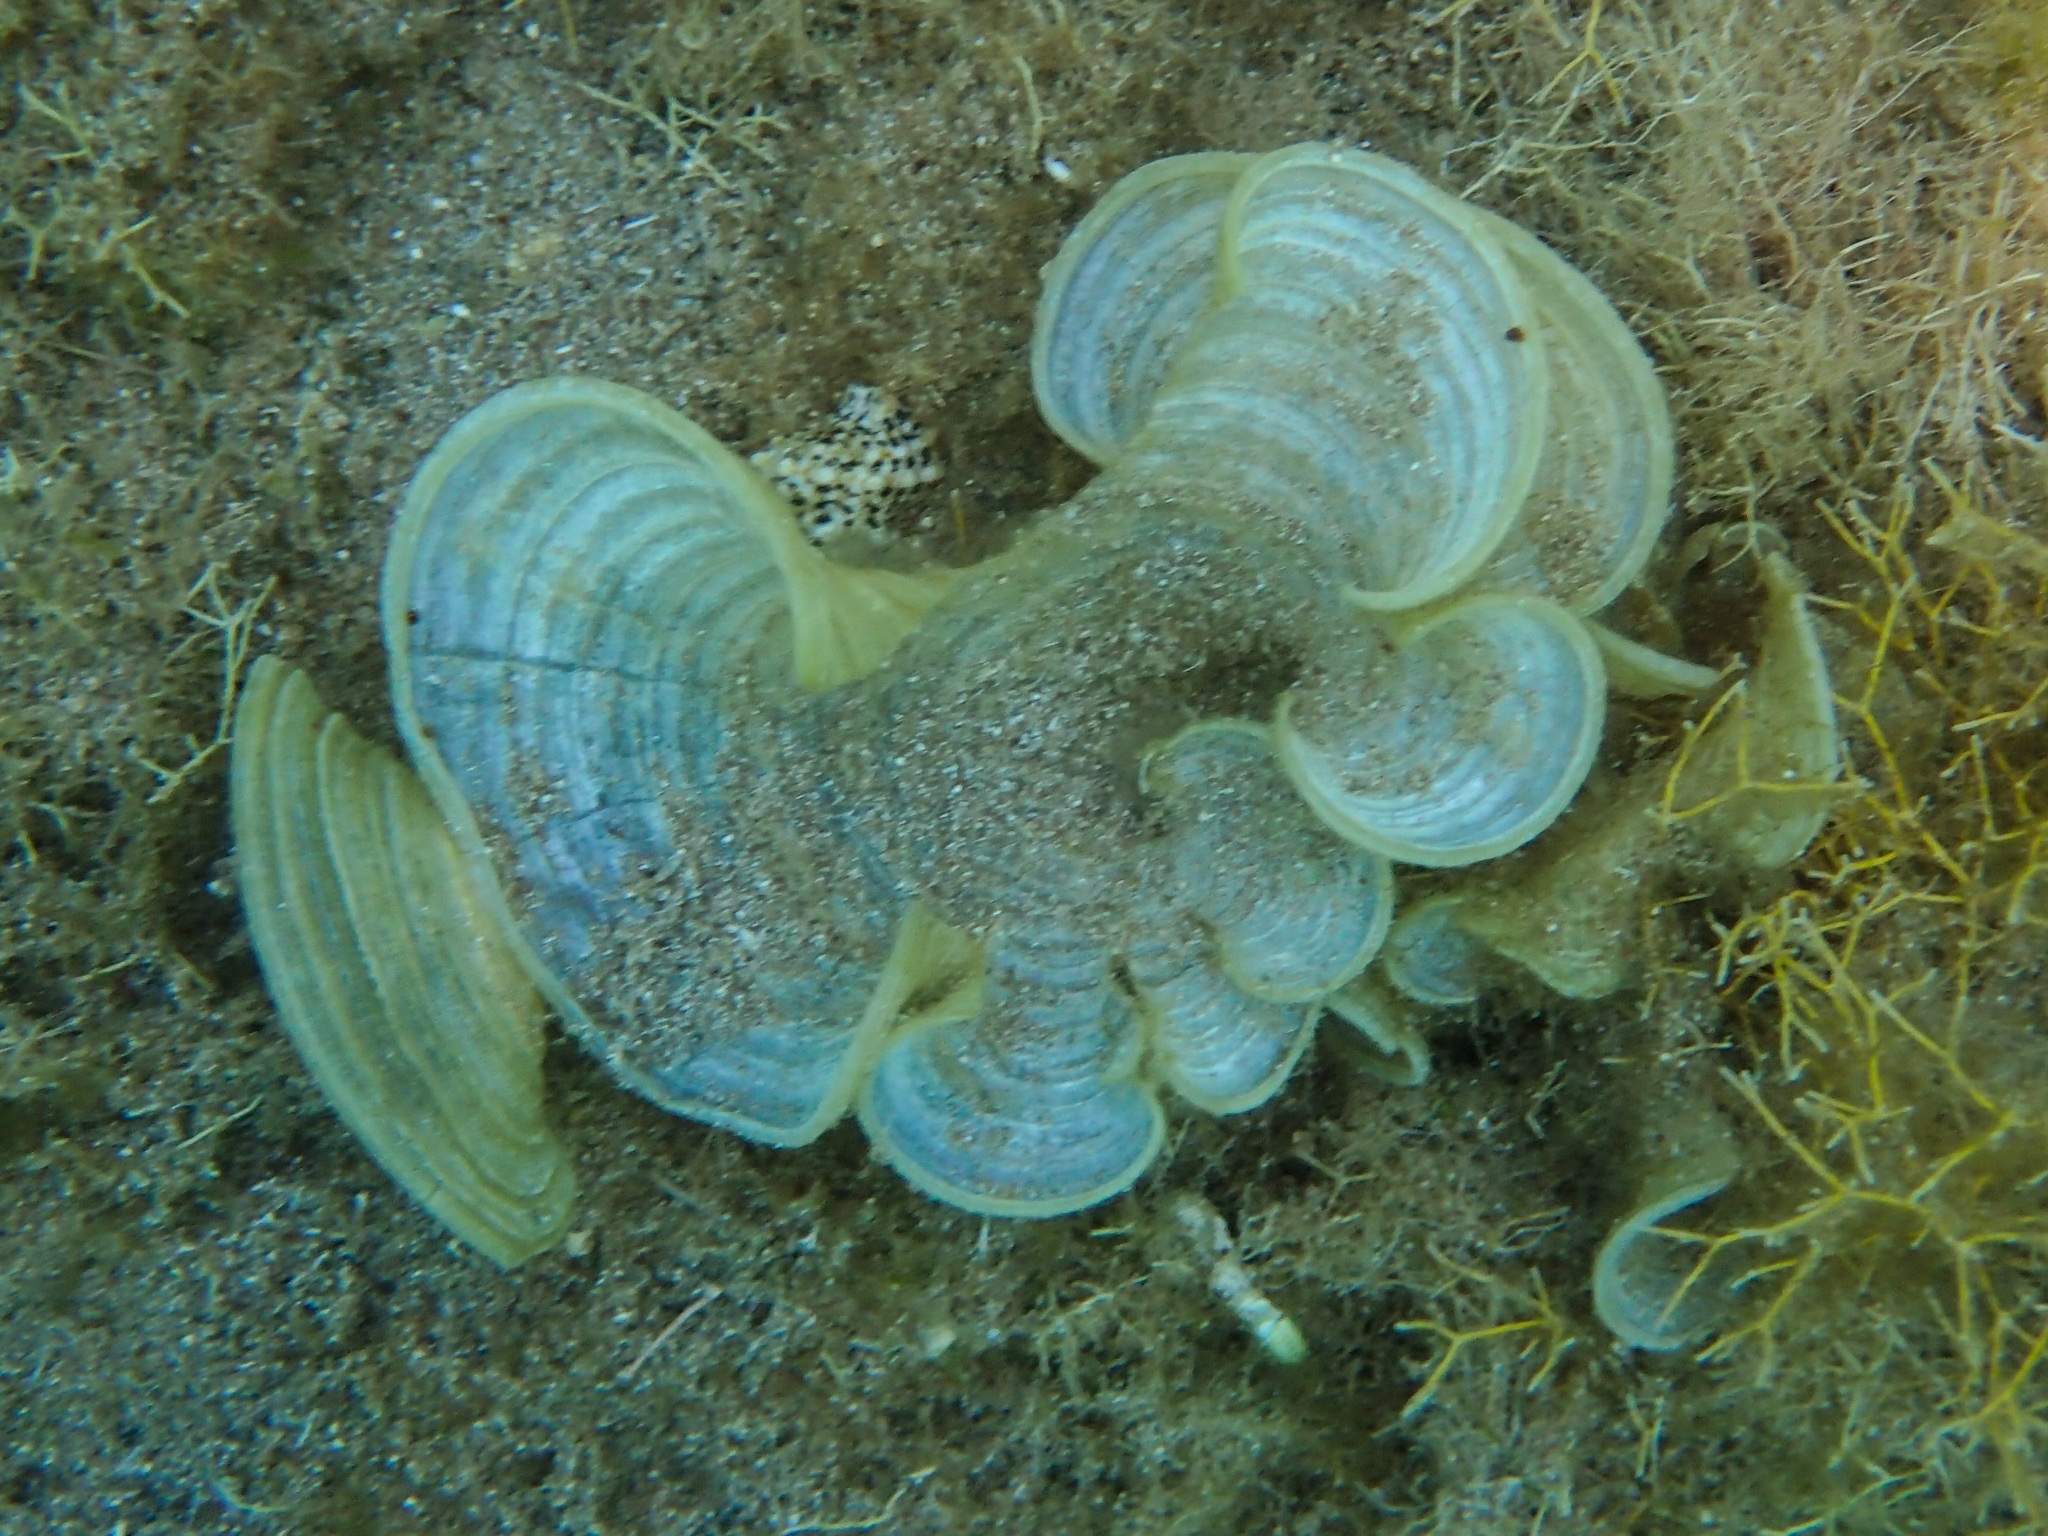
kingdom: Chromista
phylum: Ochrophyta
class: Phaeophyceae
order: Dictyotales
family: Dictyotaceae
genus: Padina
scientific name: Padina sanctae-crucis
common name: White scroll algae
